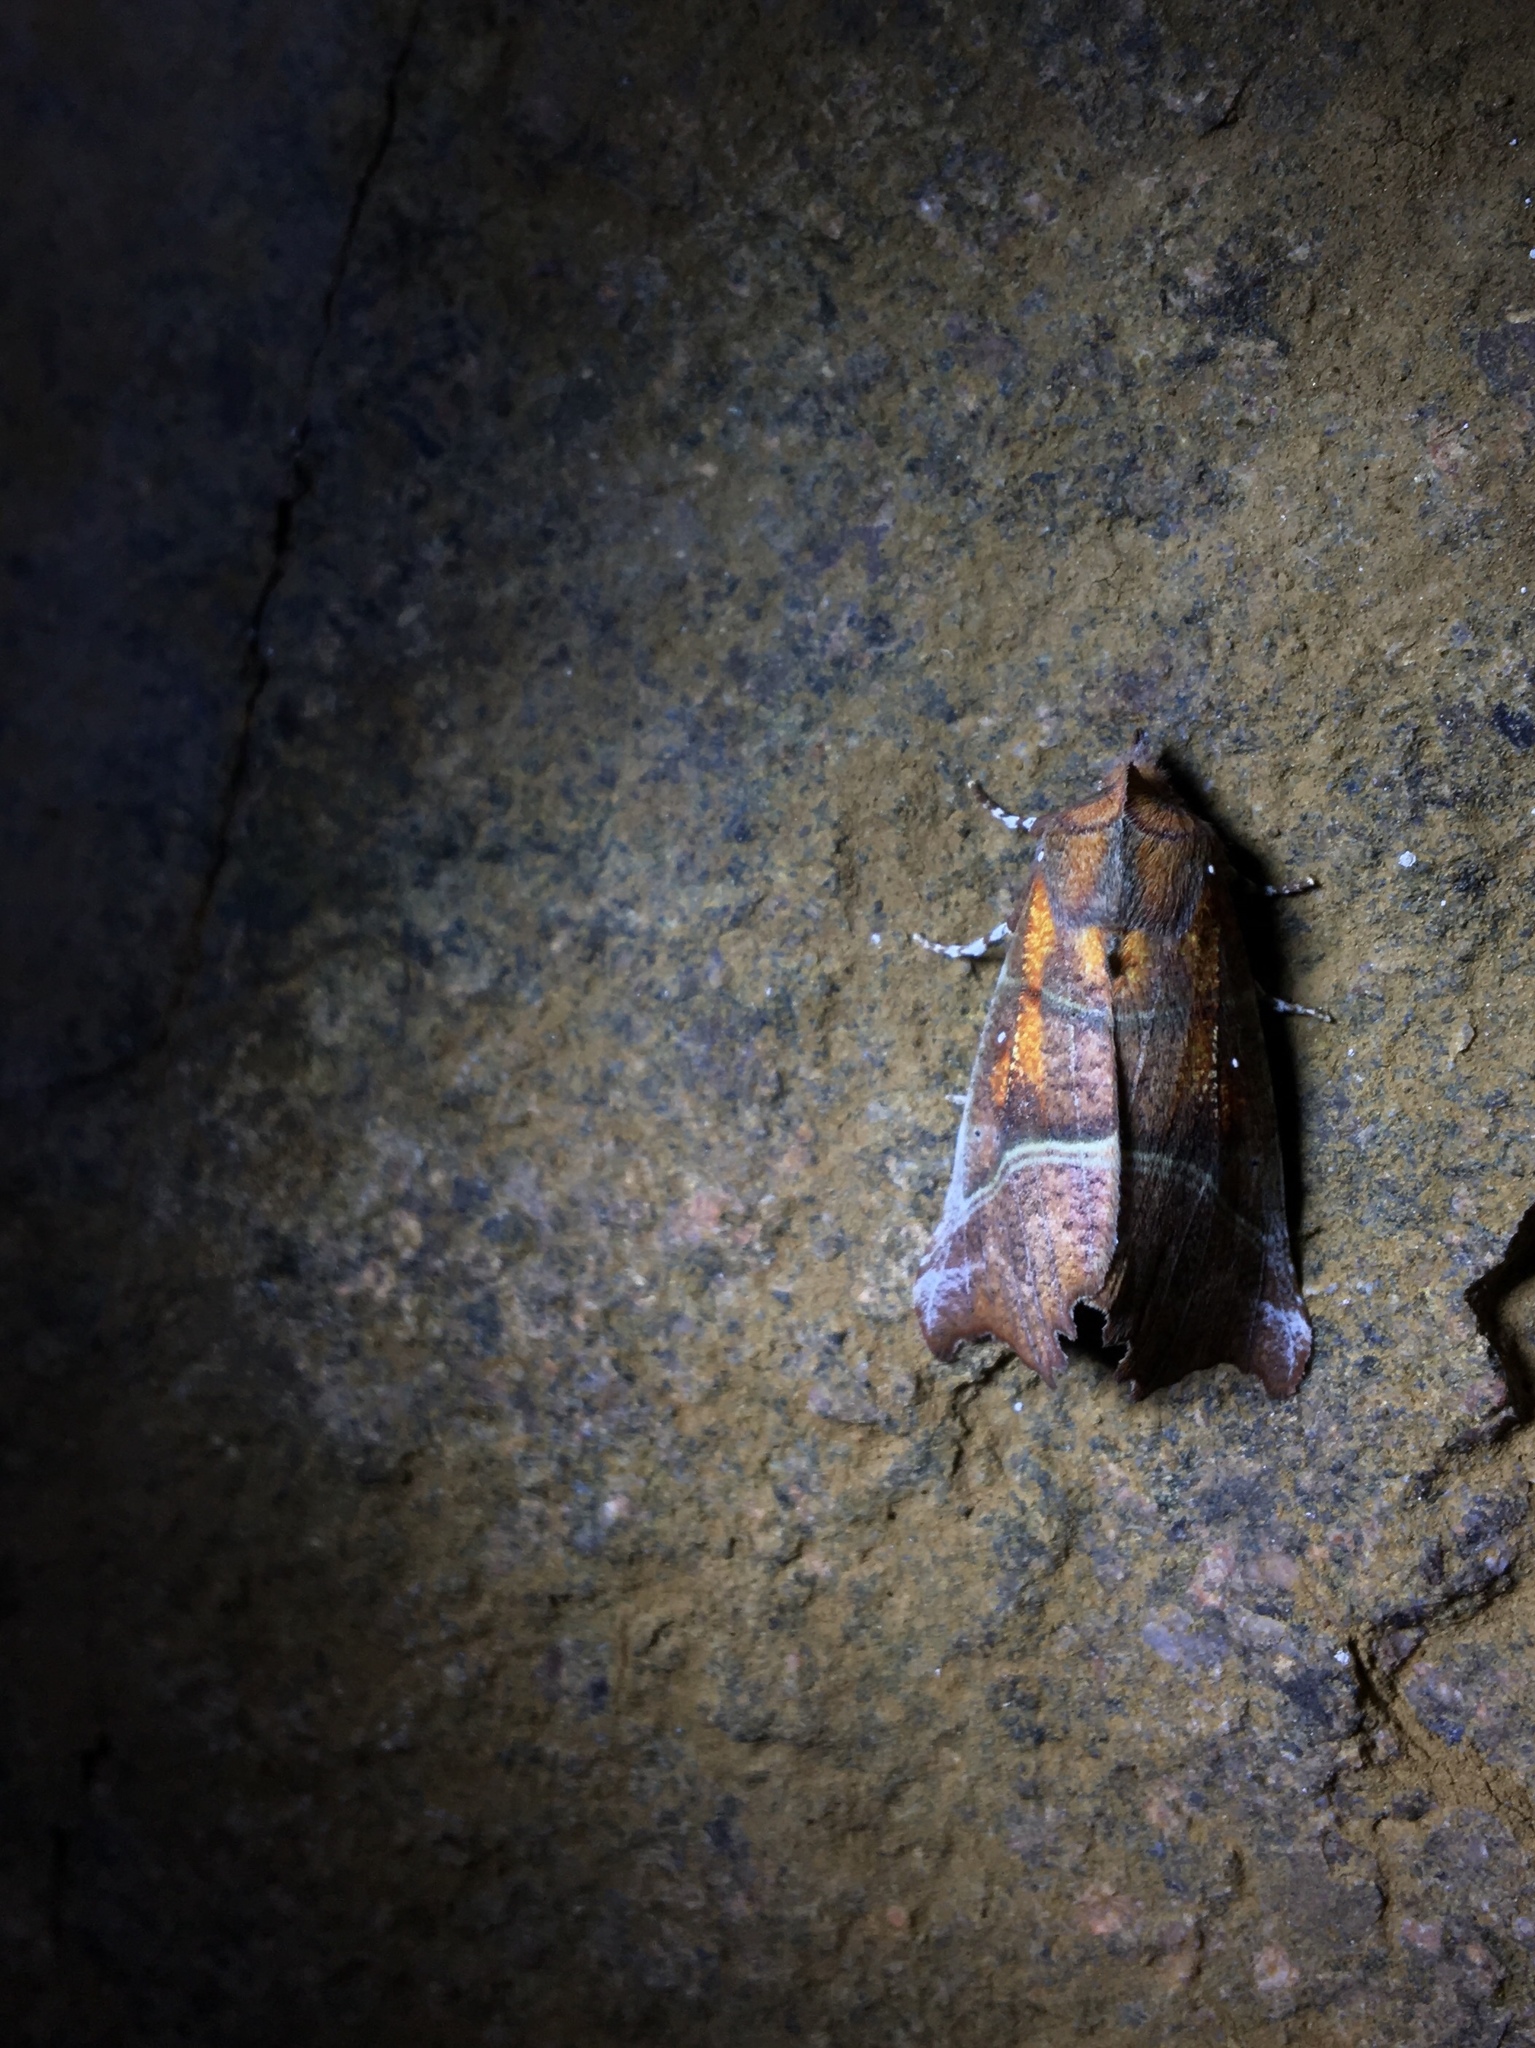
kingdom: Animalia
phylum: Arthropoda
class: Insecta
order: Lepidoptera
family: Erebidae
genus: Scoliopteryx
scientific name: Scoliopteryx libatrix
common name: Herald
